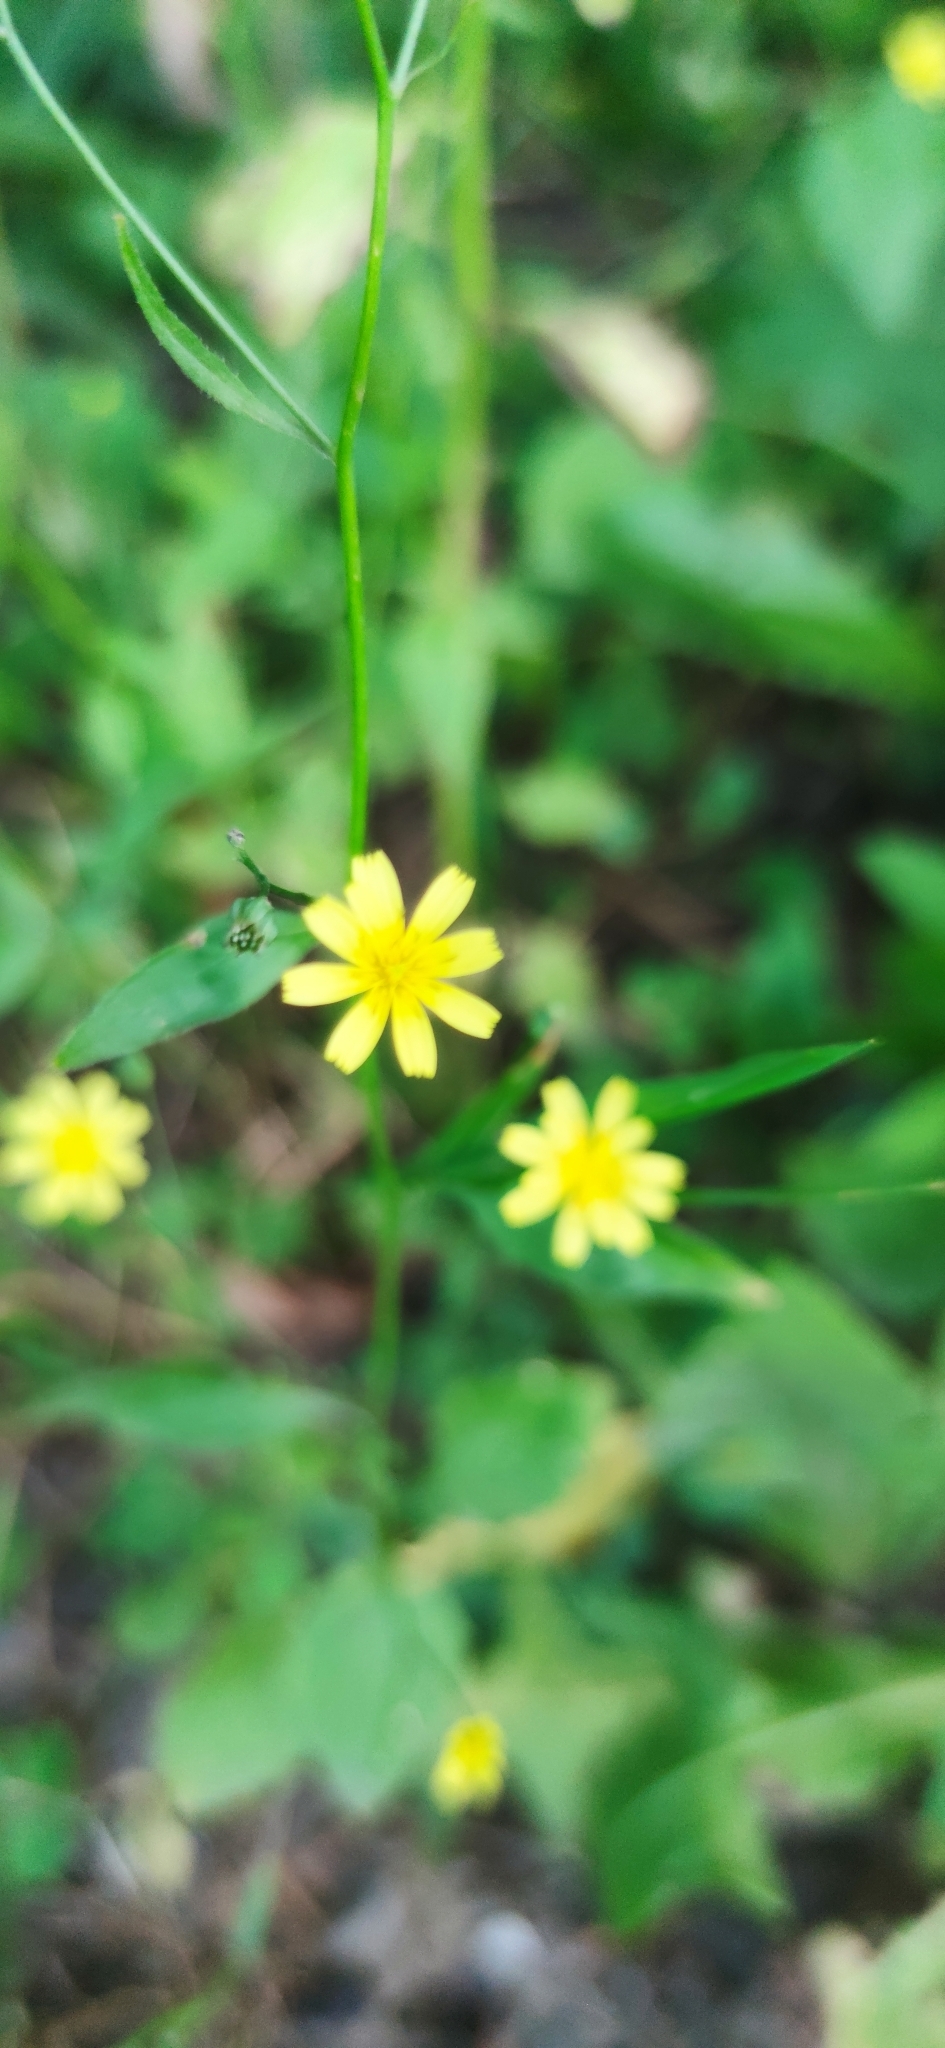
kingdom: Plantae
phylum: Tracheophyta
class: Magnoliopsida
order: Asterales
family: Asteraceae
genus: Lapsana
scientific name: Lapsana communis
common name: Nipplewort
